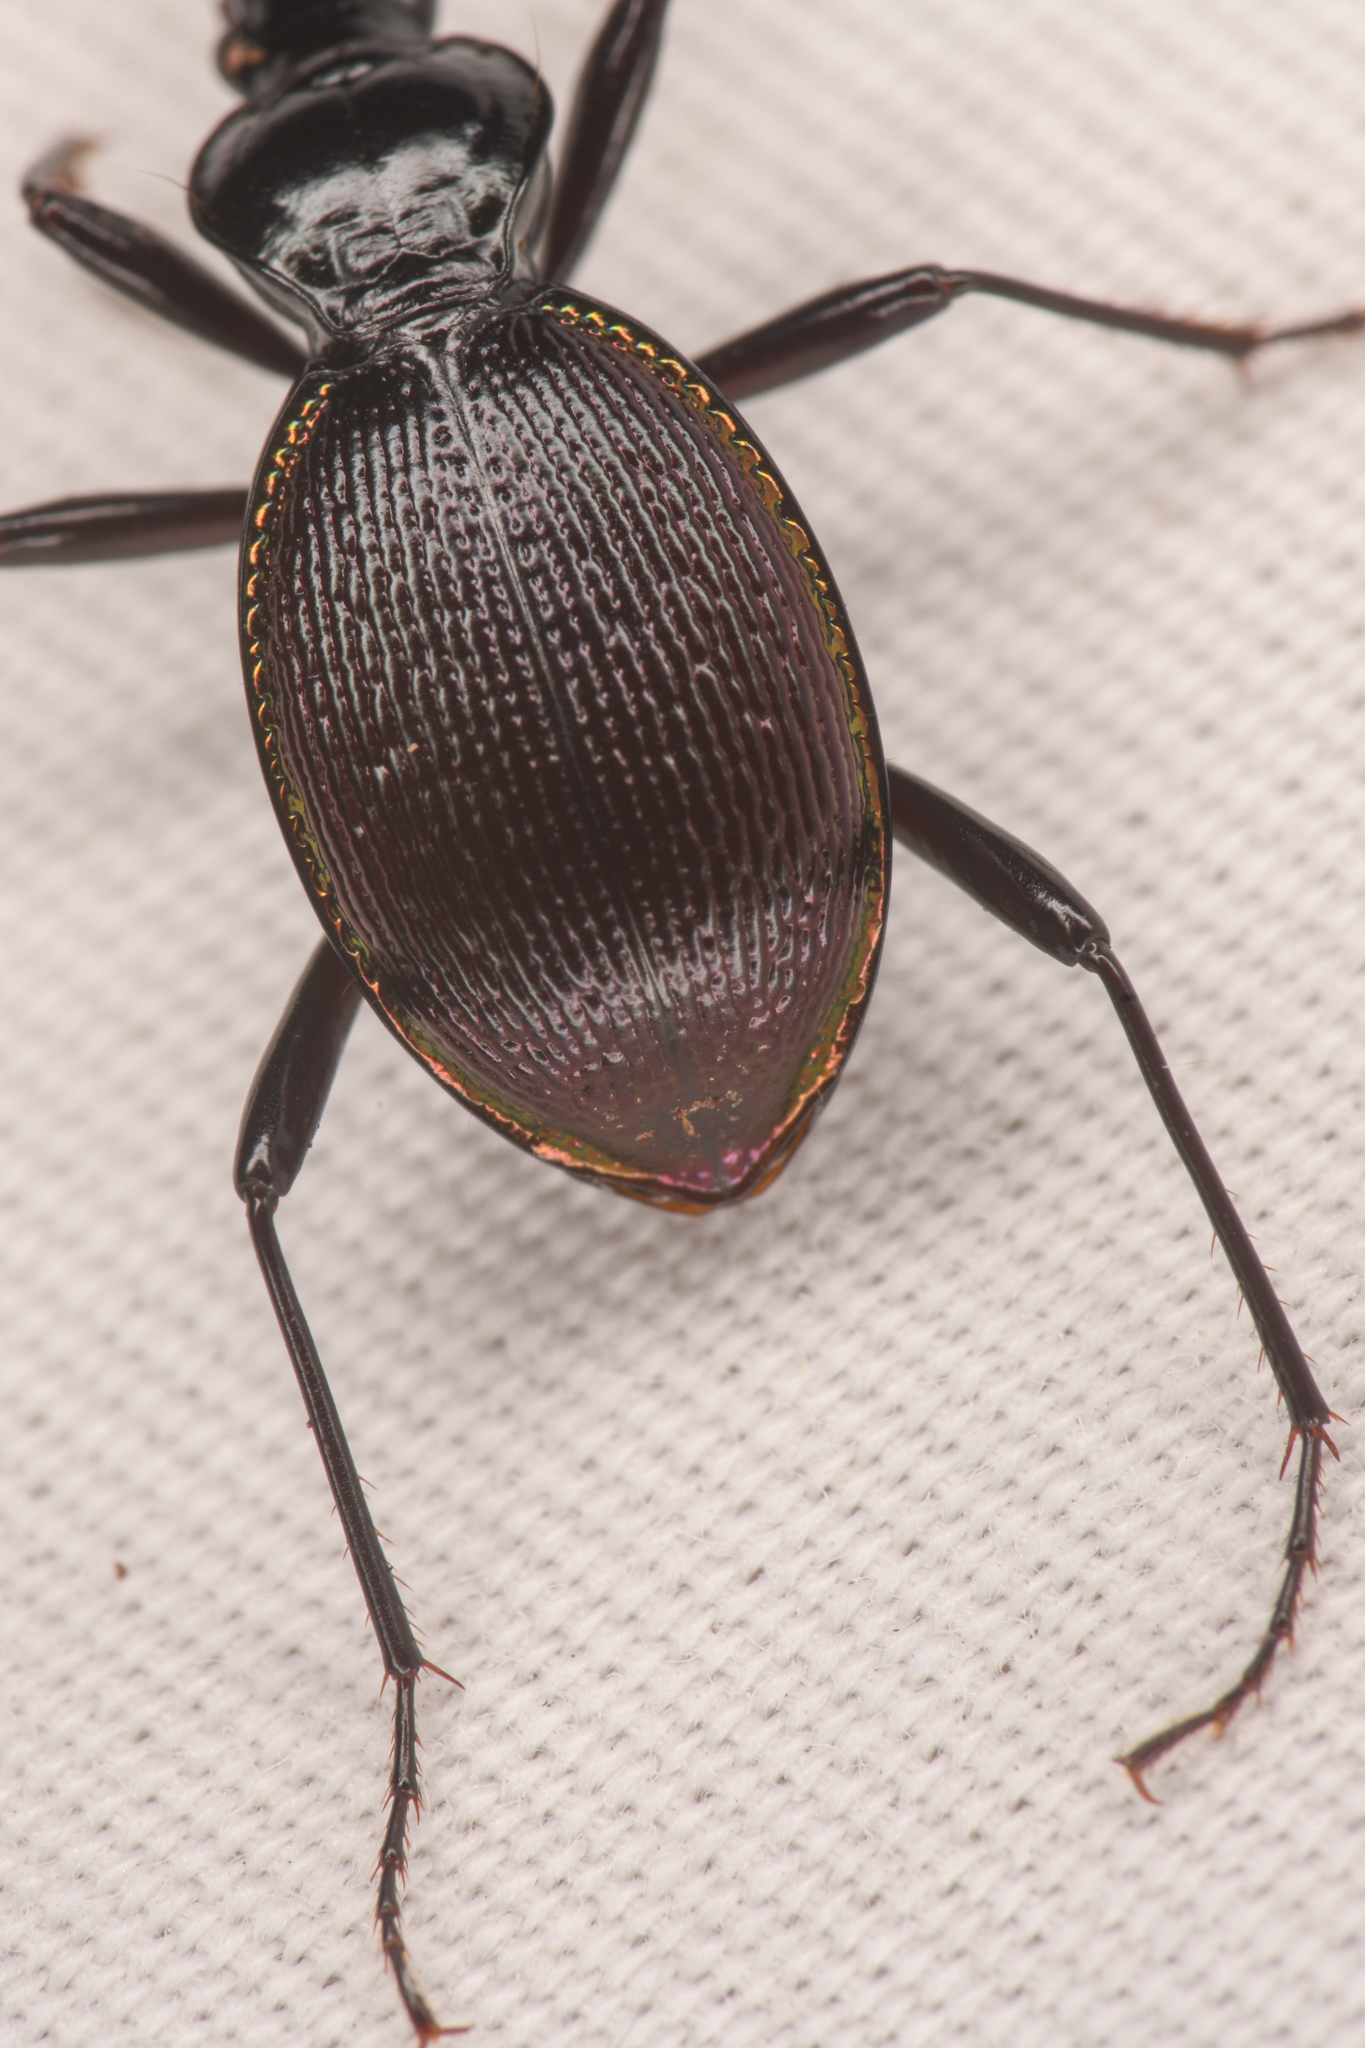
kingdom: Animalia
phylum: Arthropoda
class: Insecta
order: Coleoptera
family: Carabidae
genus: Scaphinotus
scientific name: Scaphinotus marginatus
